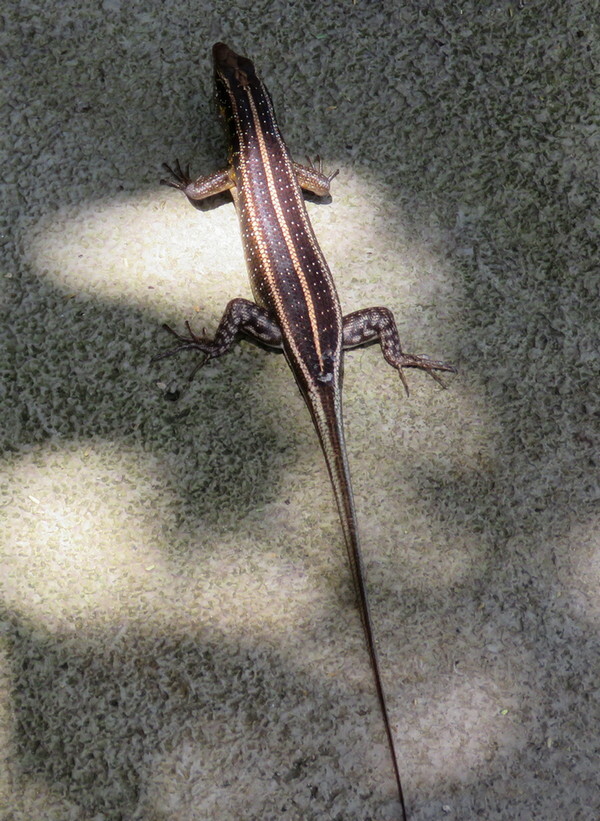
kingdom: Animalia
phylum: Chordata
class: Squamata
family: Scincidae
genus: Trachylepis
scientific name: Trachylepis margaritifera
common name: Rainbow skink
